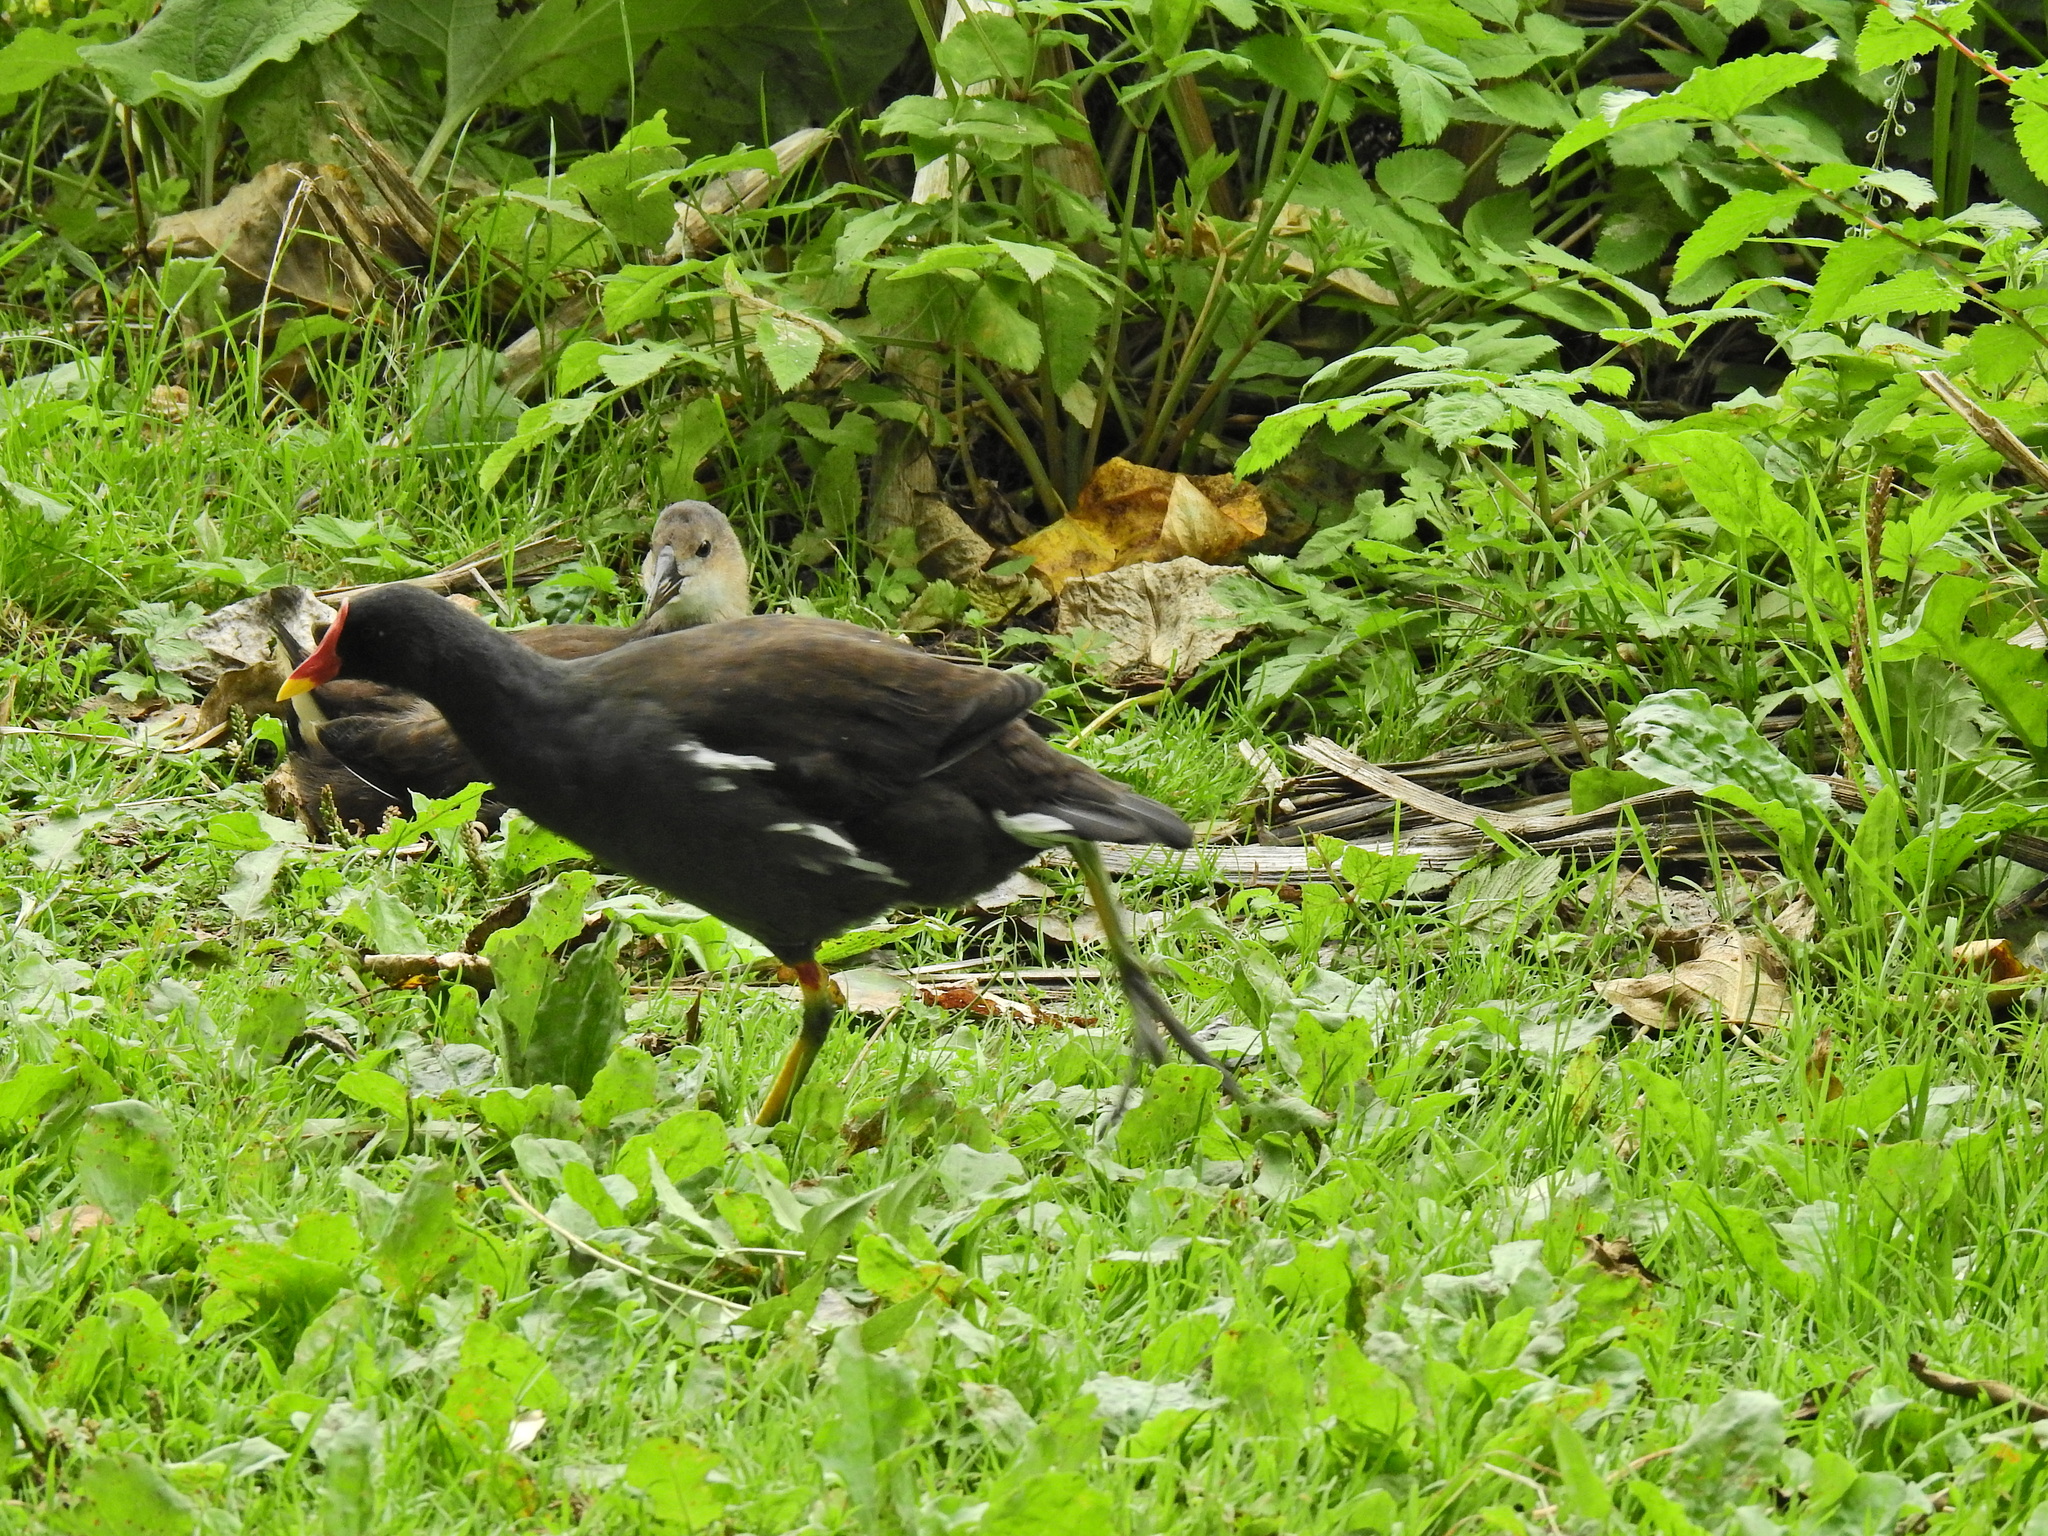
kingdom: Animalia
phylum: Chordata
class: Aves
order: Gruiformes
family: Rallidae
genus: Gallinula
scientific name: Gallinula chloropus
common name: Common moorhen
